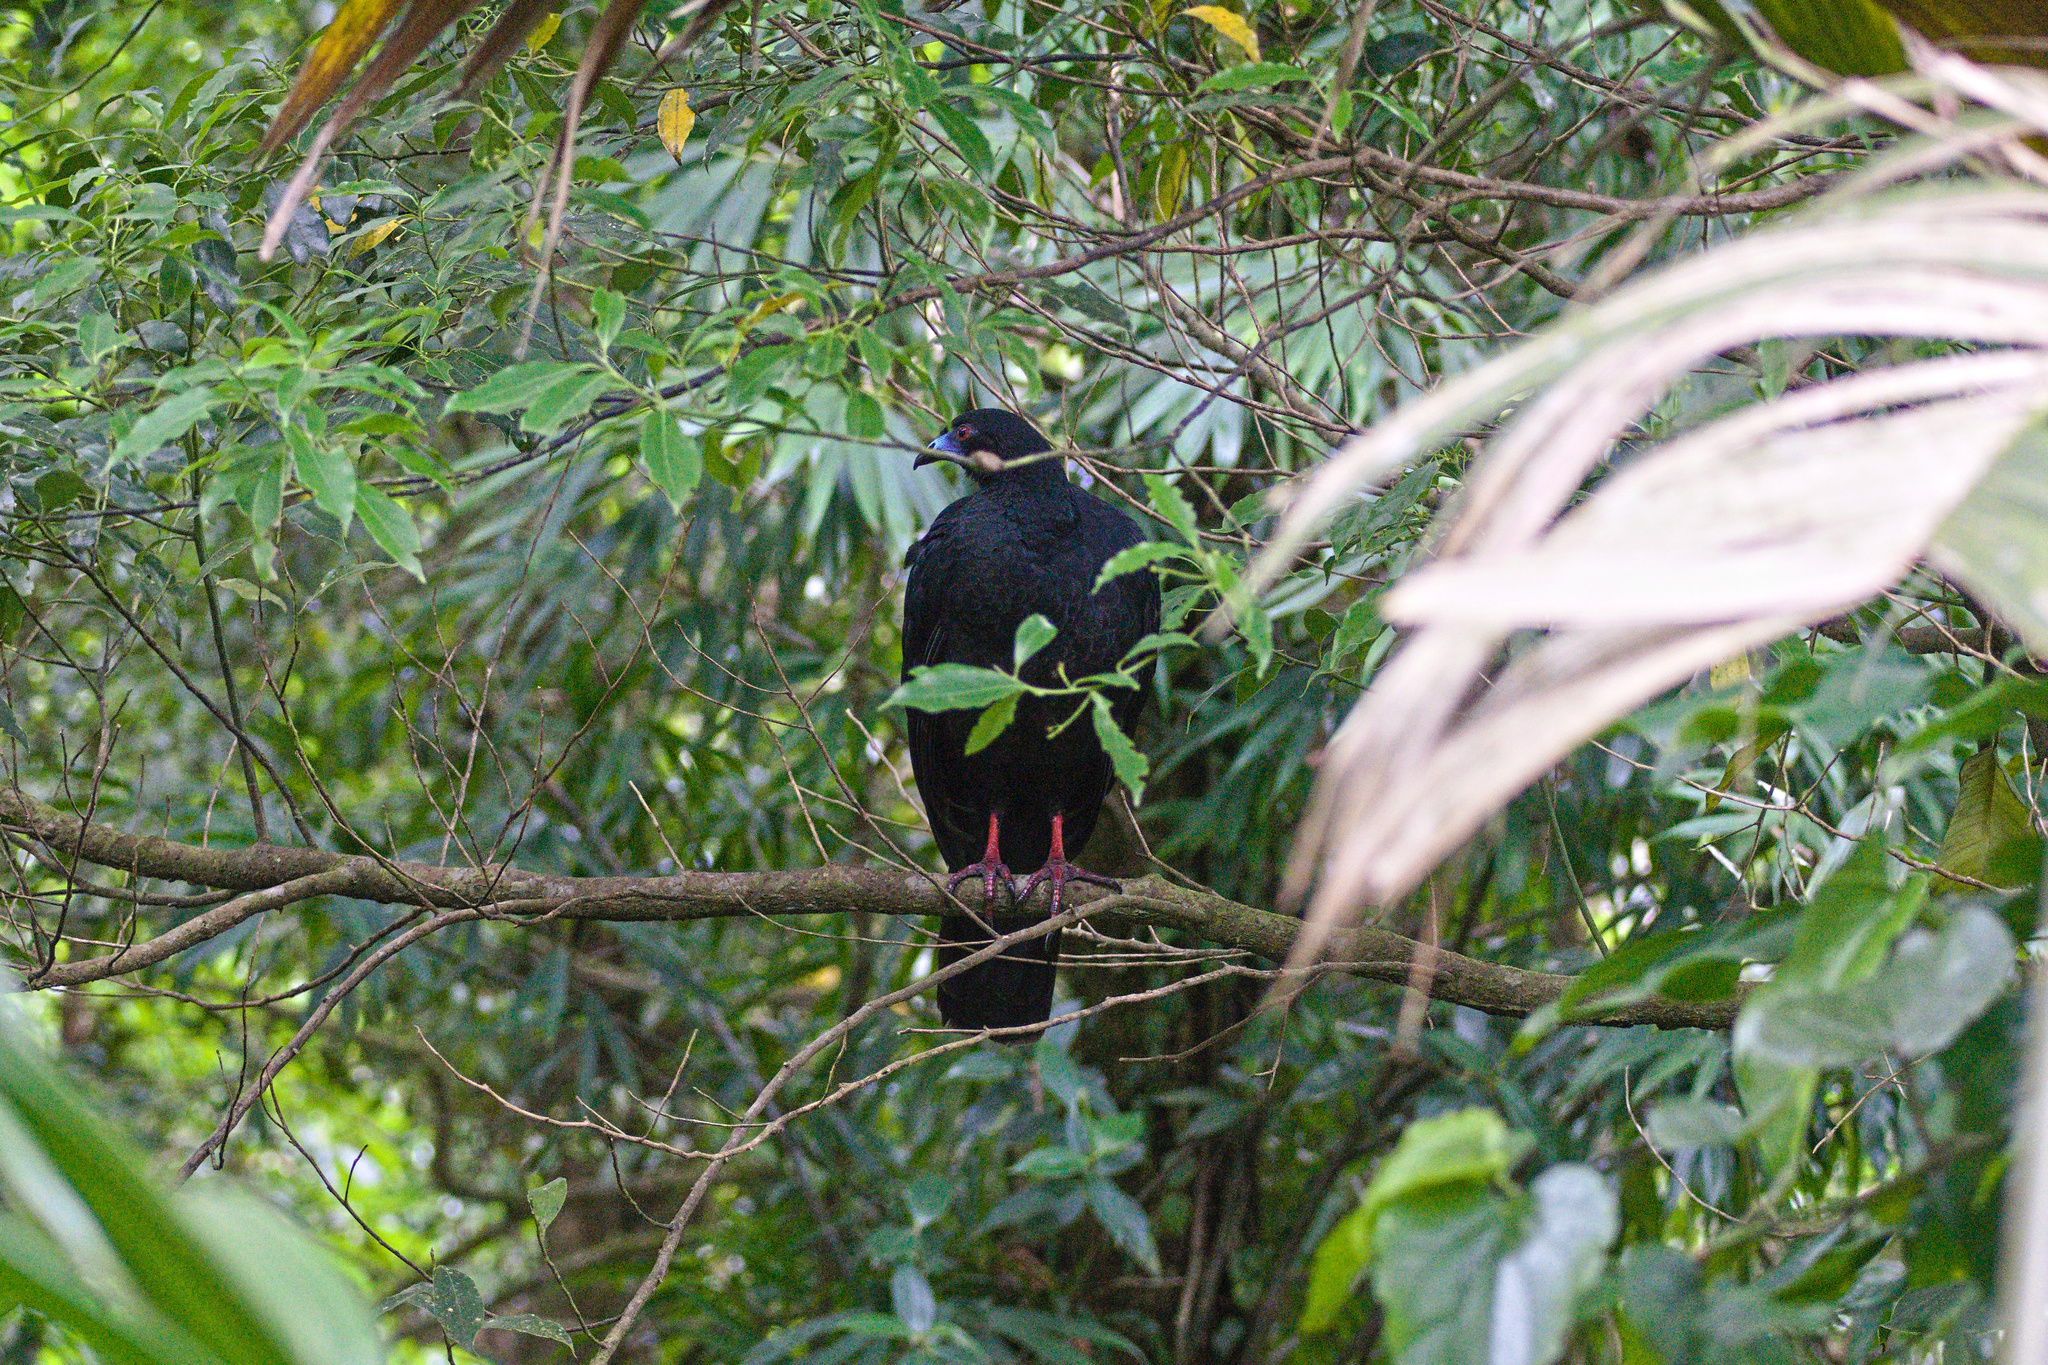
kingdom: Animalia
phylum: Chordata
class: Aves
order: Galliformes
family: Cracidae
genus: Chamaepetes
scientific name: Chamaepetes unicolor
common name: Black guan
